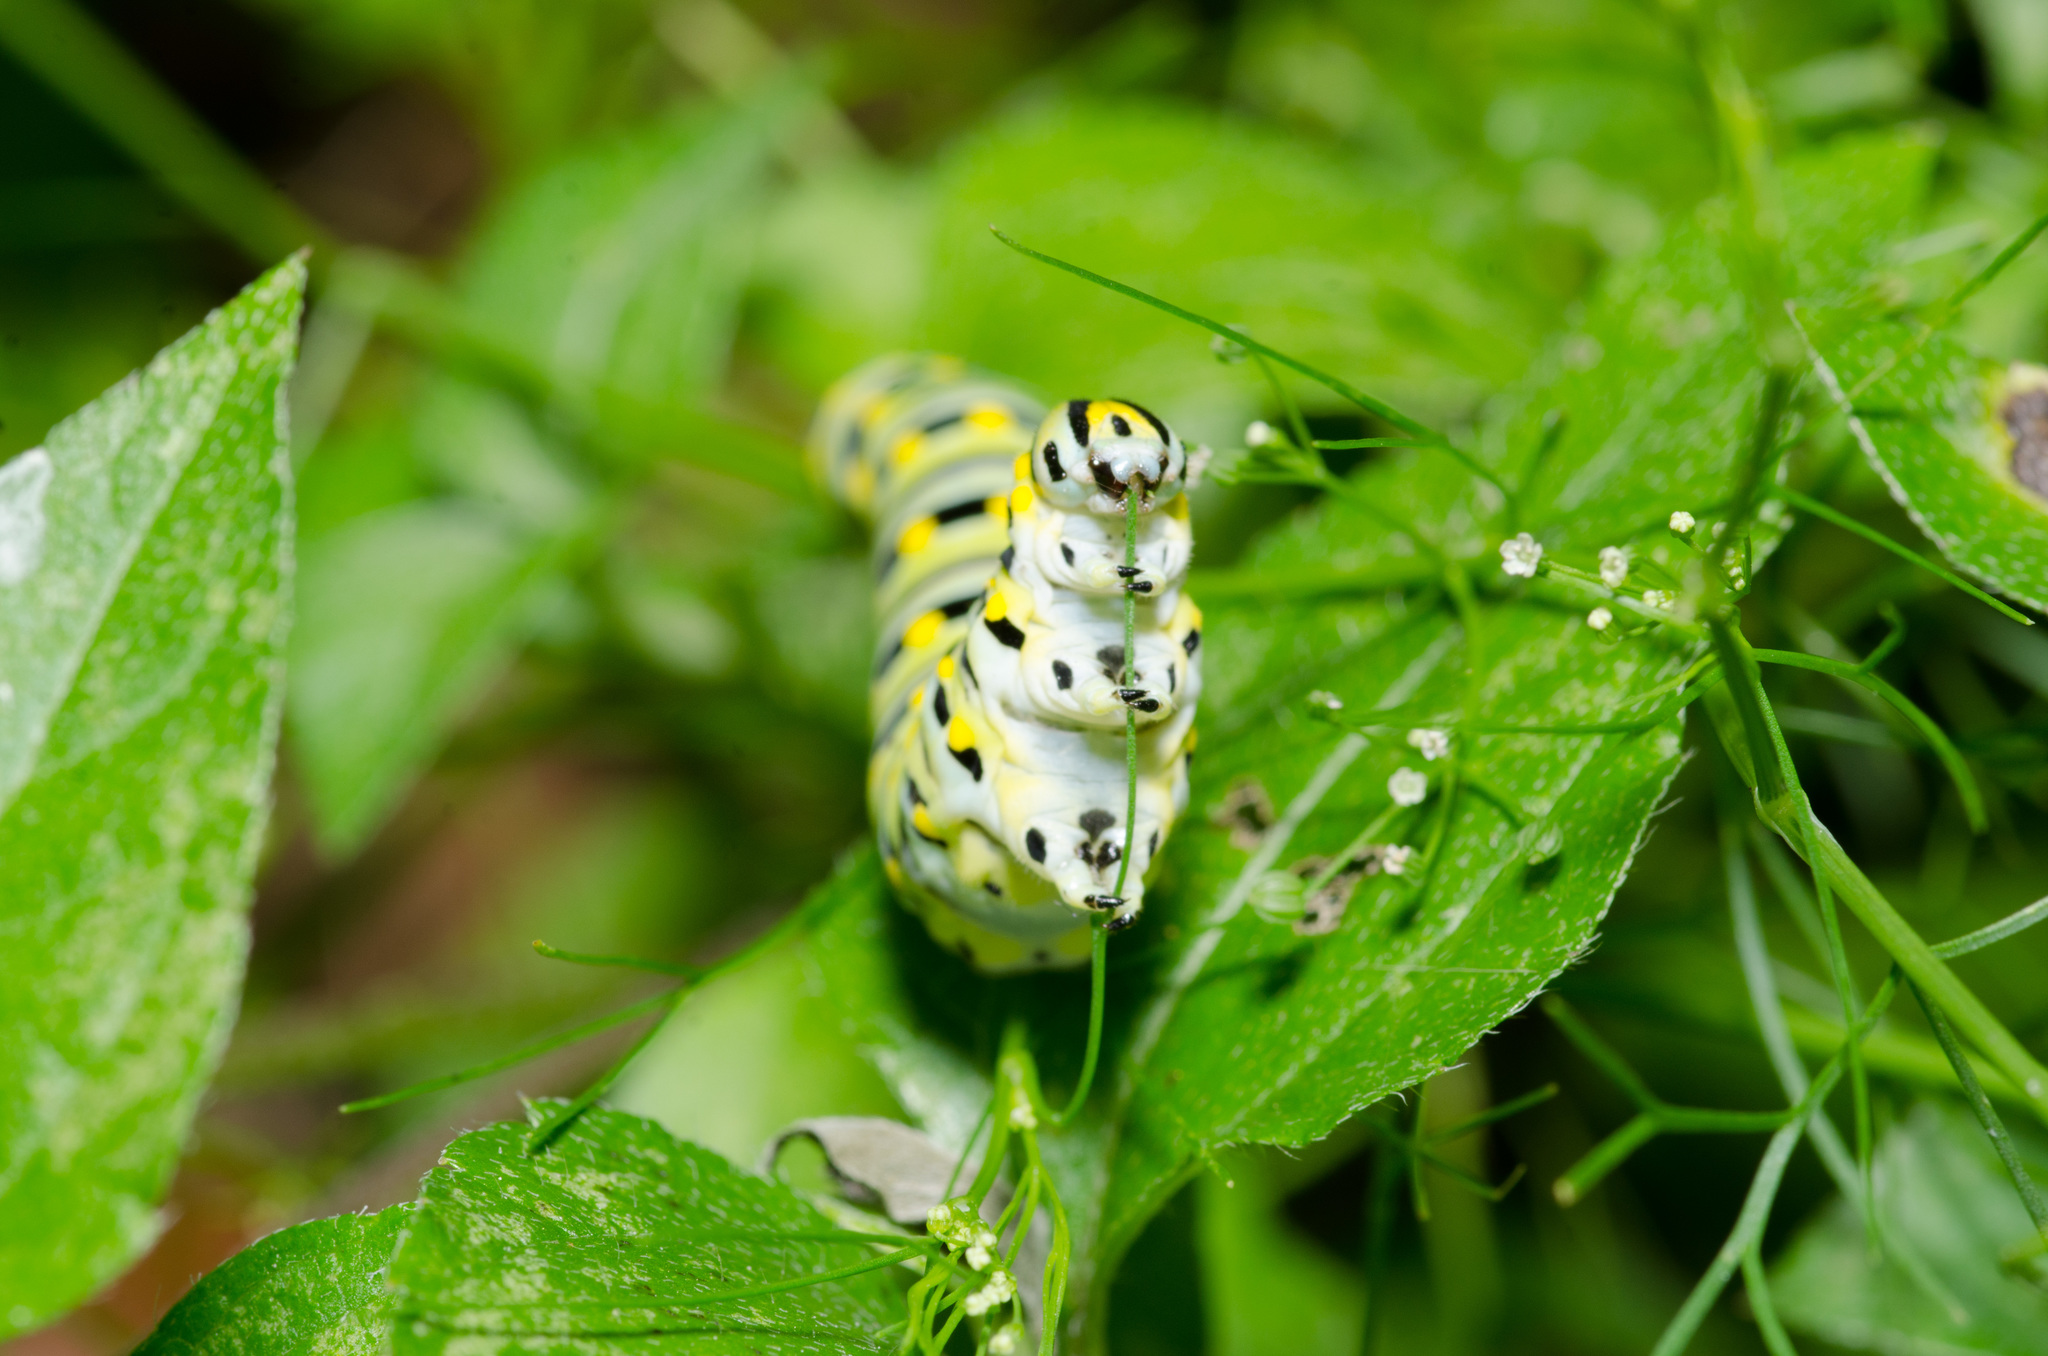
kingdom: Animalia
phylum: Arthropoda
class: Insecta
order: Lepidoptera
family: Papilionidae
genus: Papilio
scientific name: Papilio polyxenes
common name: Black swallowtail
